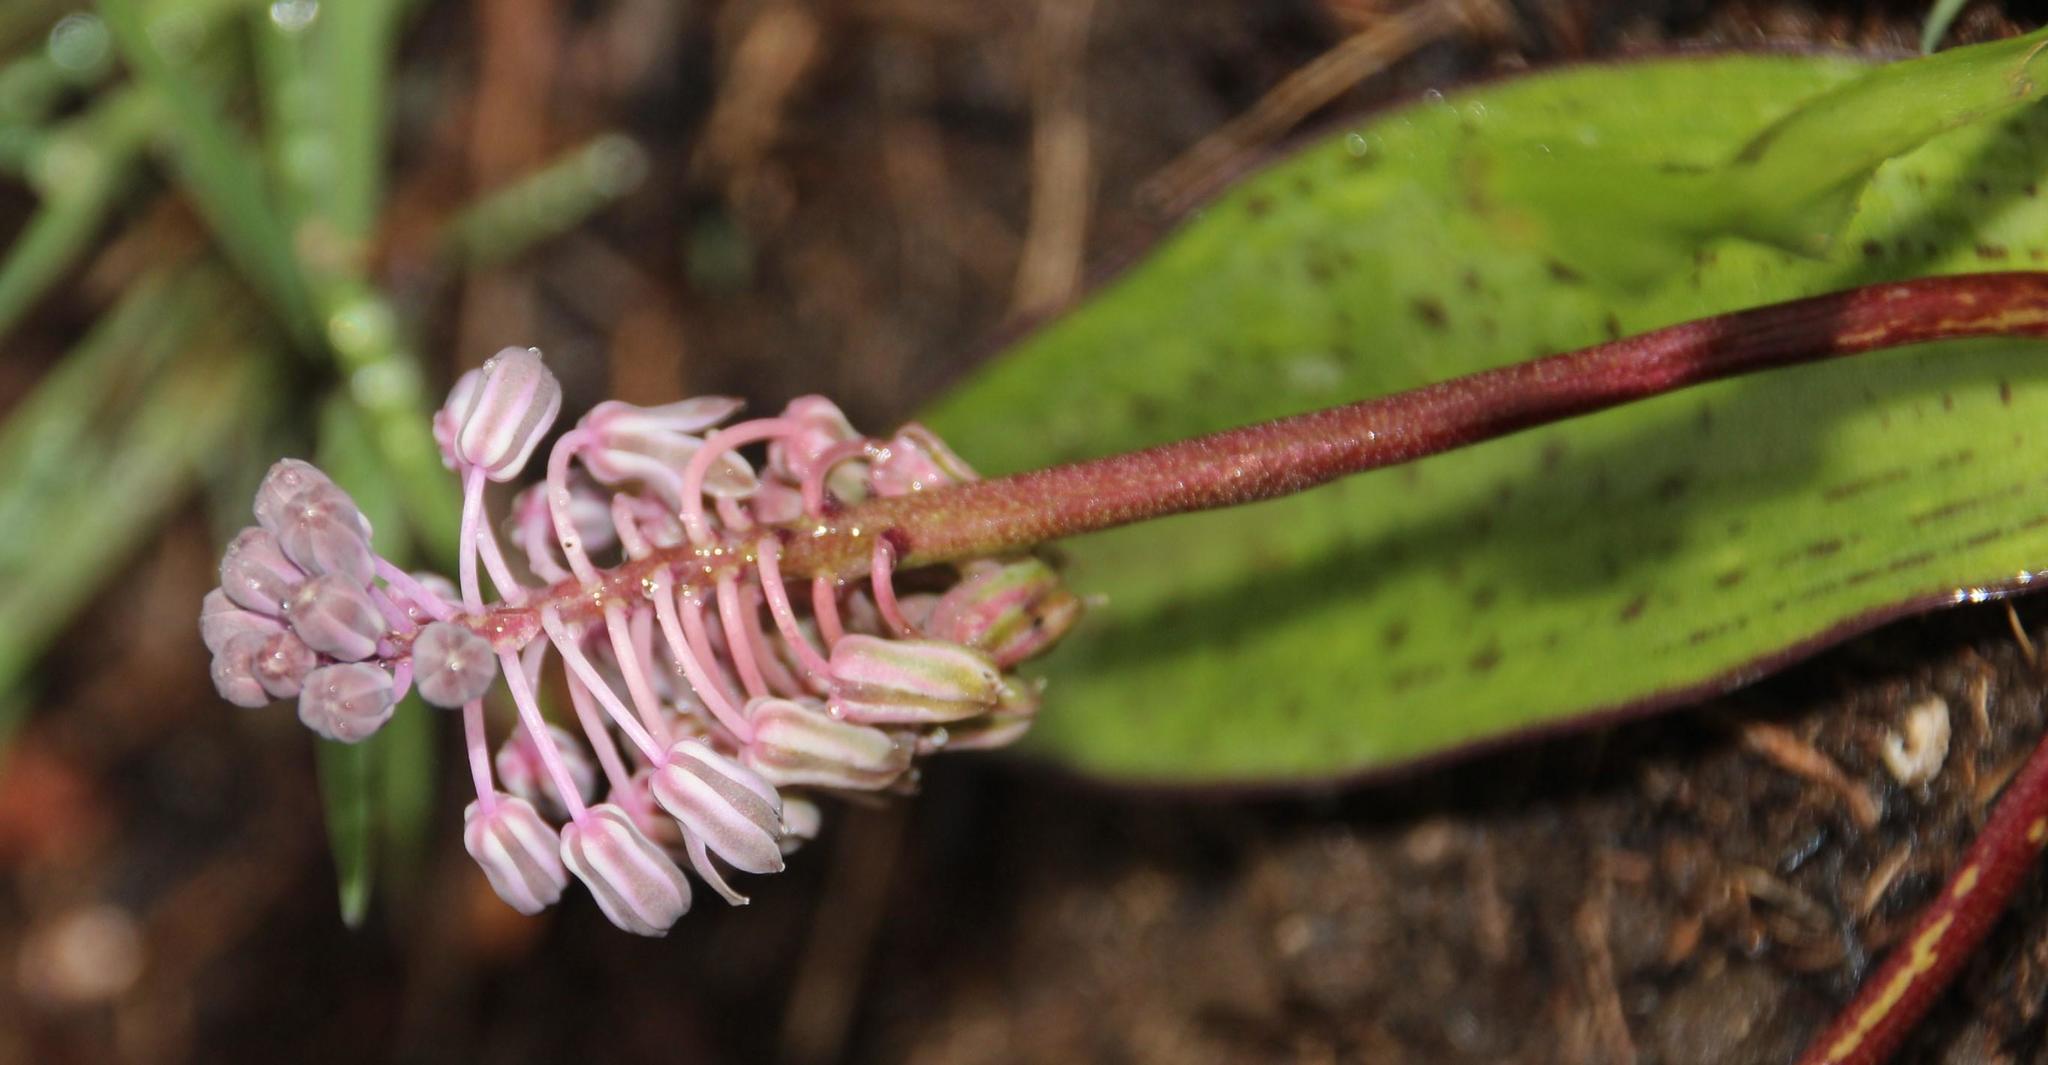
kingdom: Plantae
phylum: Tracheophyta
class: Liliopsida
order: Asparagales
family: Asparagaceae
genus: Ledebouria
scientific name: Ledebouria sandersonii
